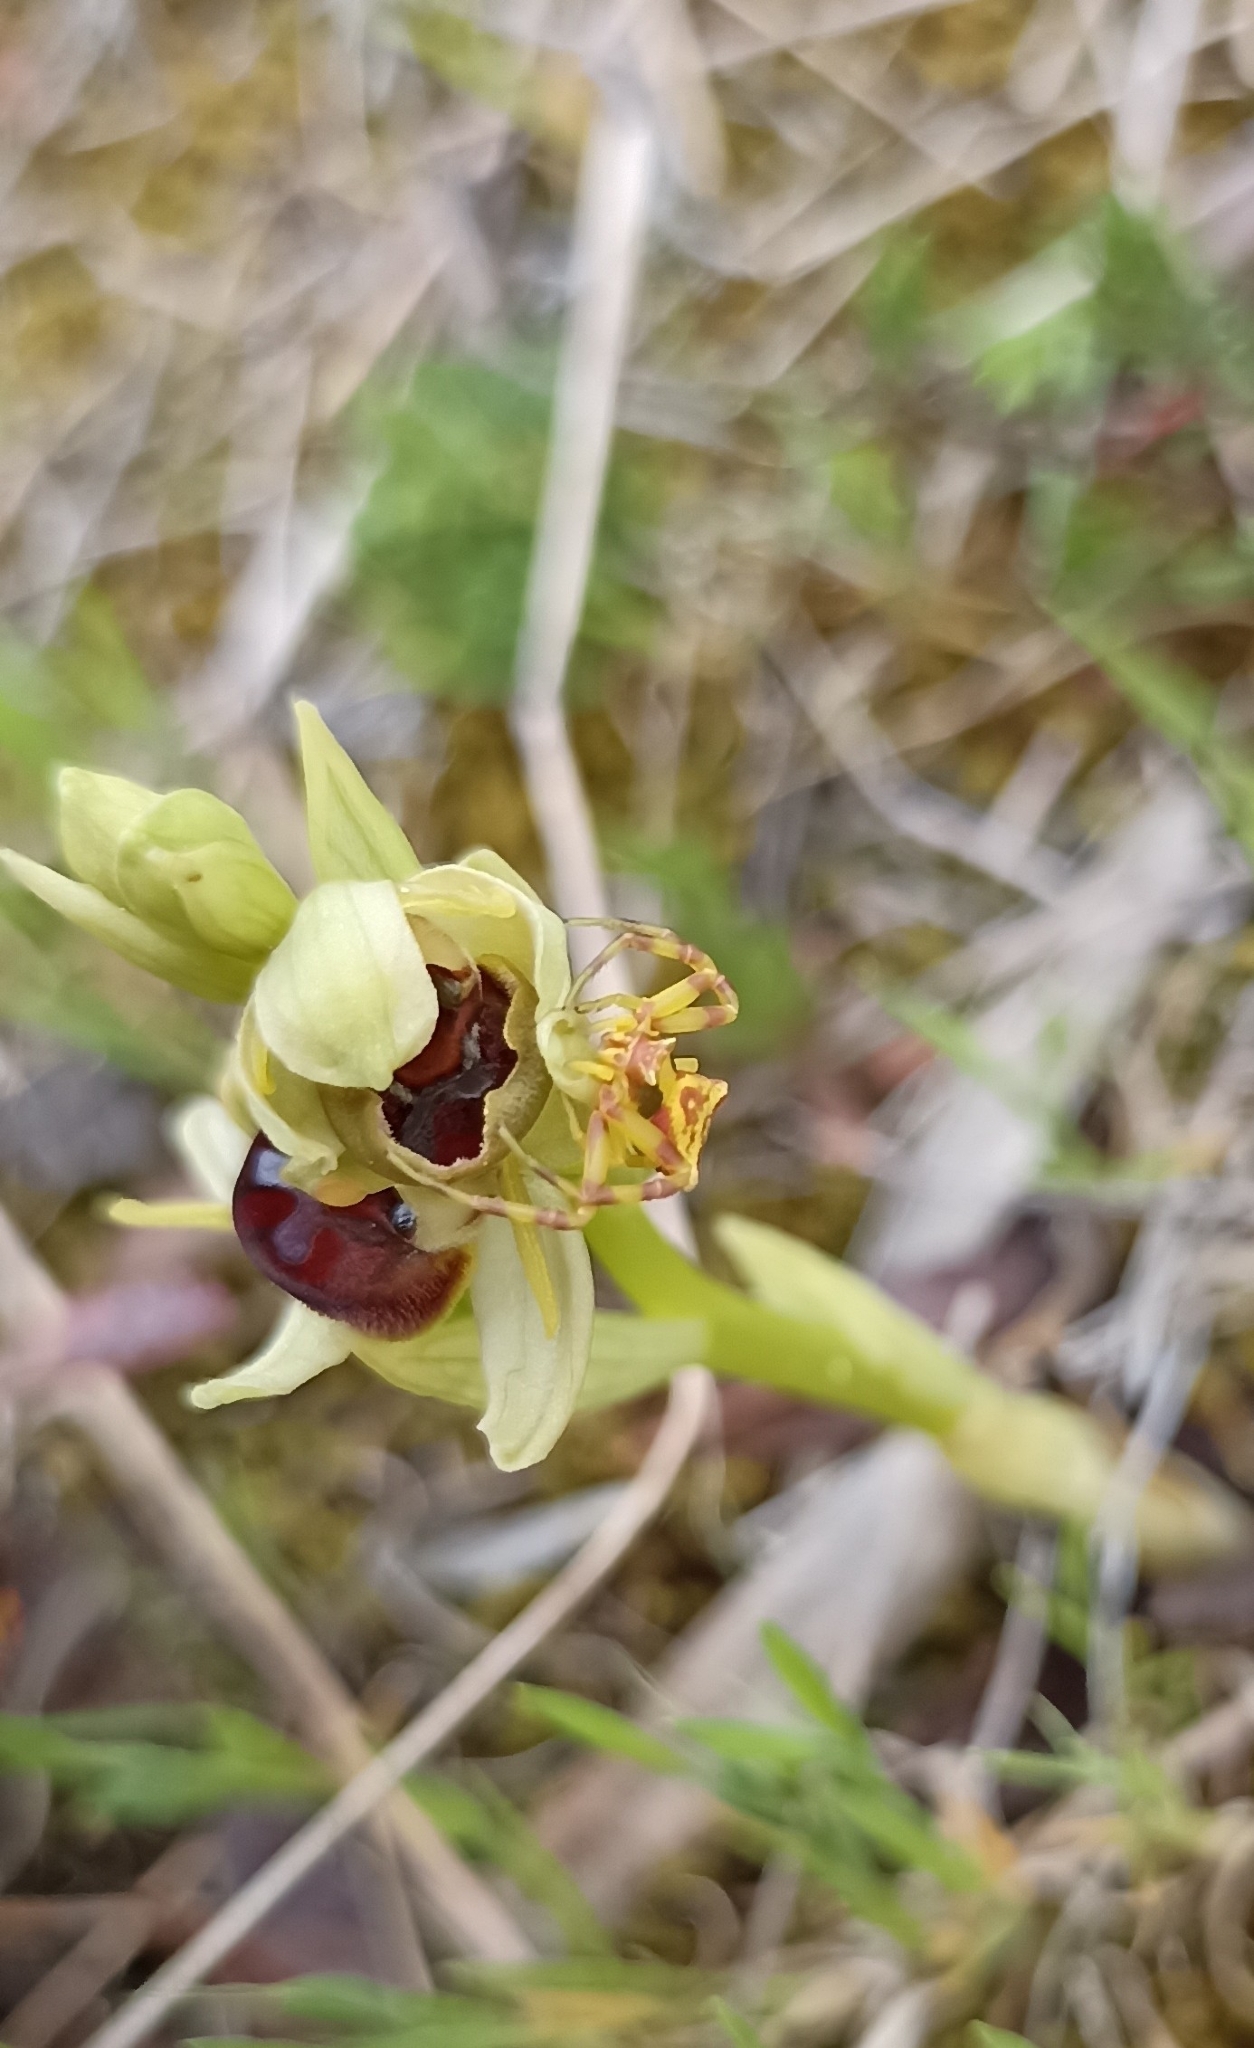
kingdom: Animalia
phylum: Arthropoda
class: Arachnida
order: Araneae
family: Thomisidae
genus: Thomisus
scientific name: Thomisus onustus
